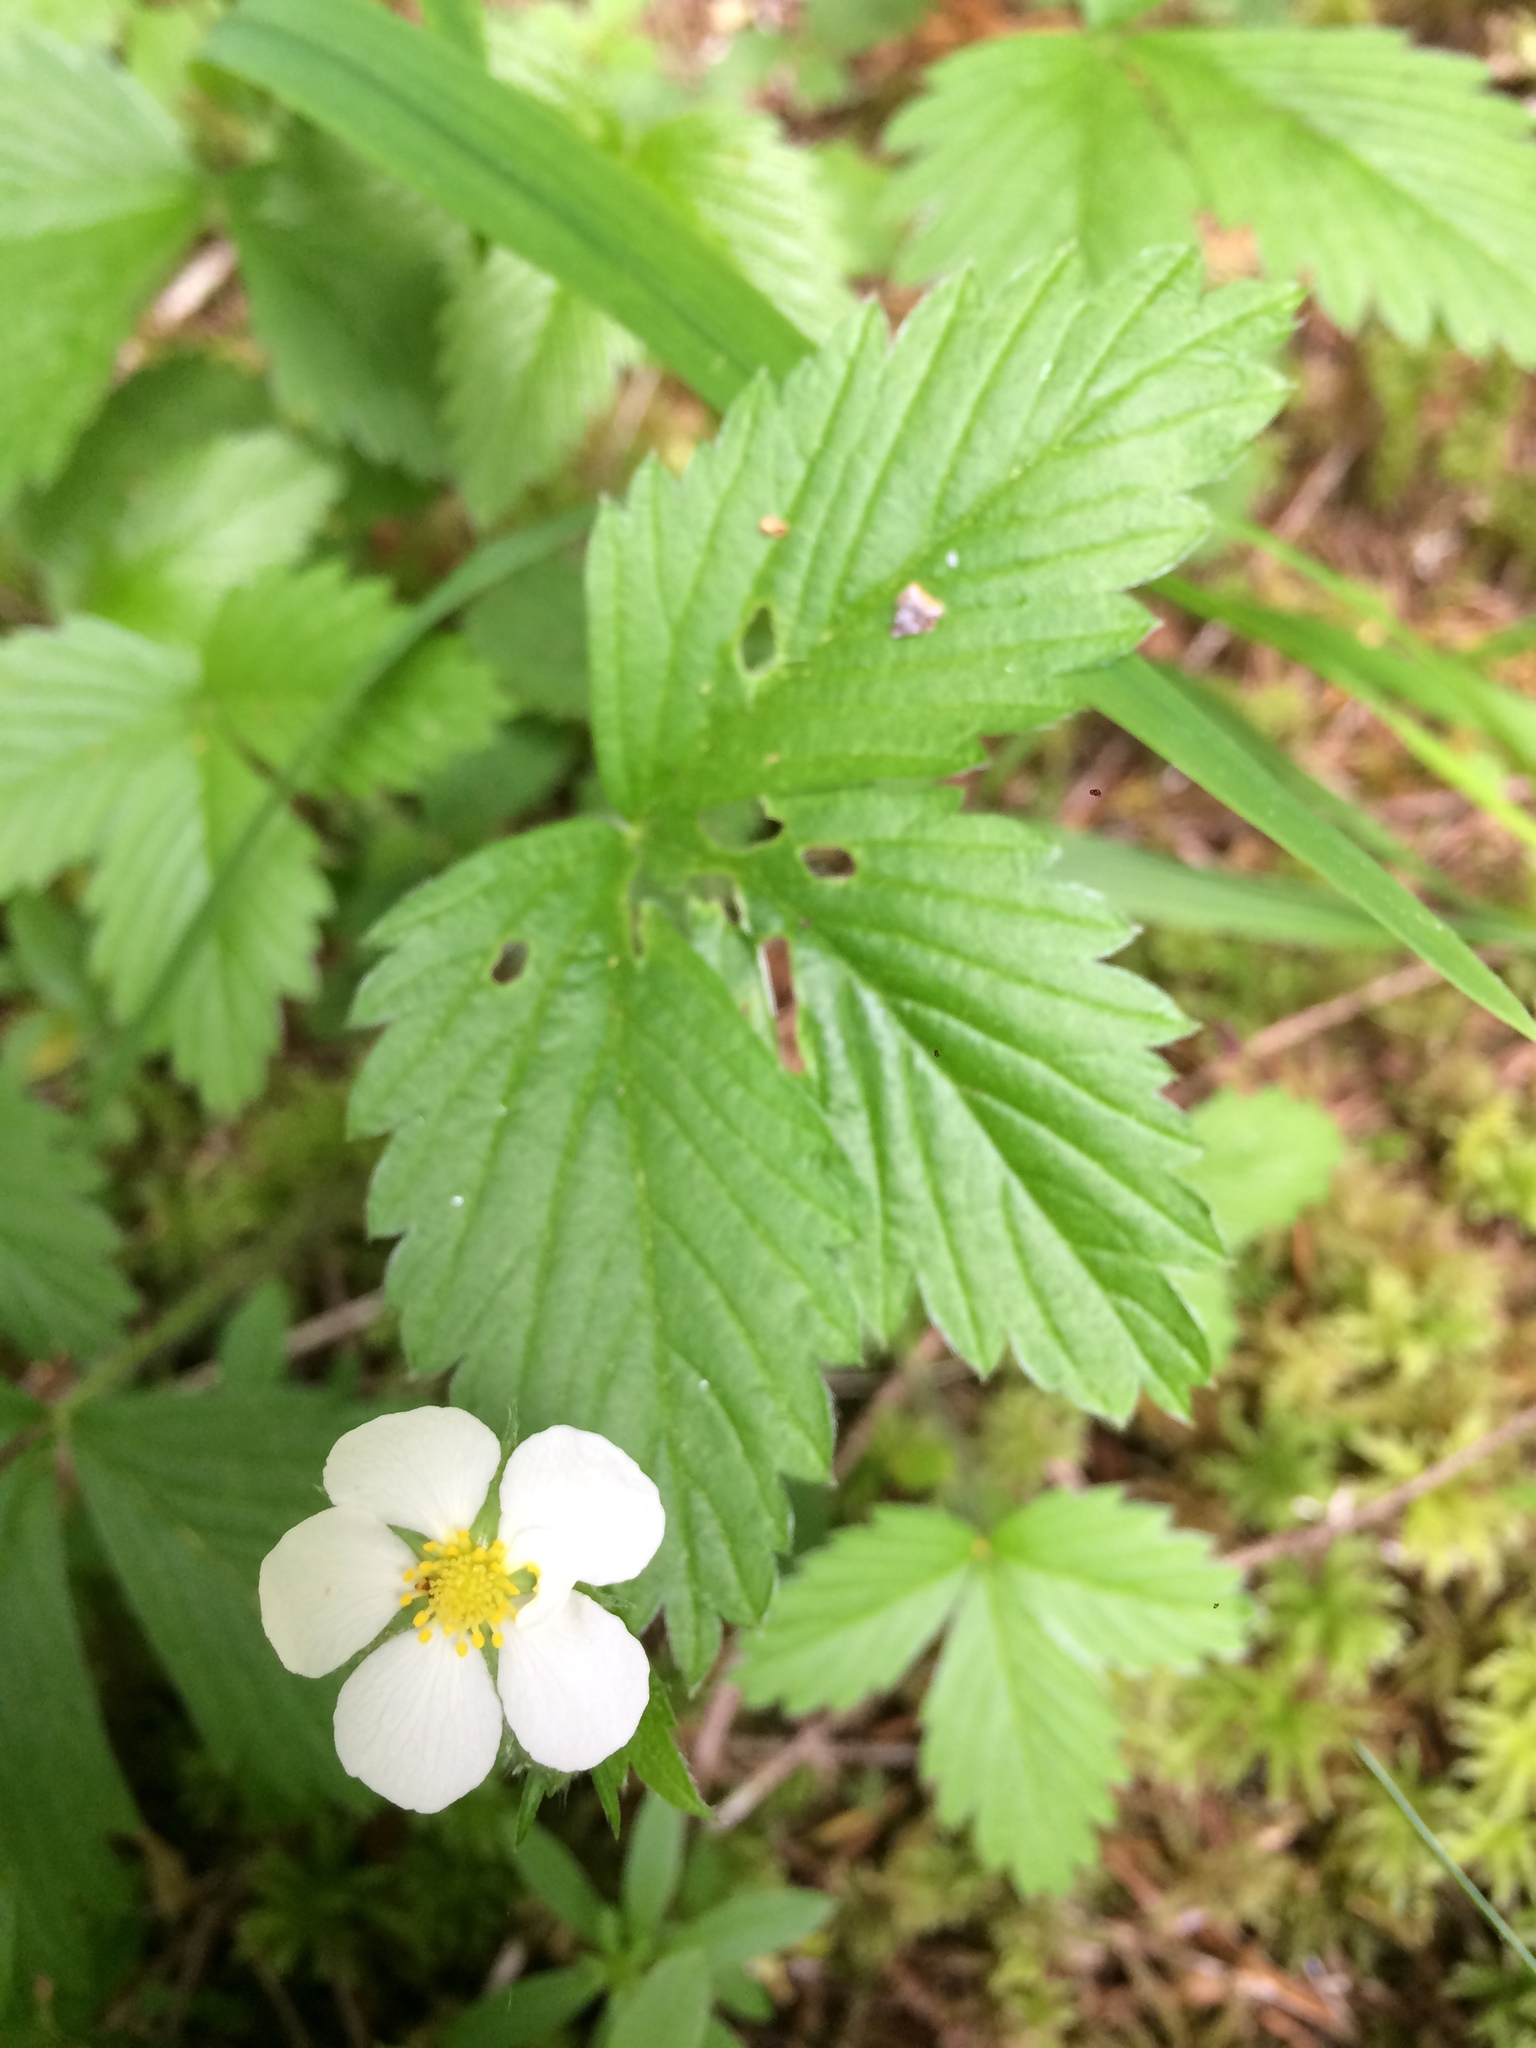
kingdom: Plantae
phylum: Tracheophyta
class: Magnoliopsida
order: Rosales
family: Rosaceae
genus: Fragaria
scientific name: Fragaria vesca
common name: Wild strawberry
